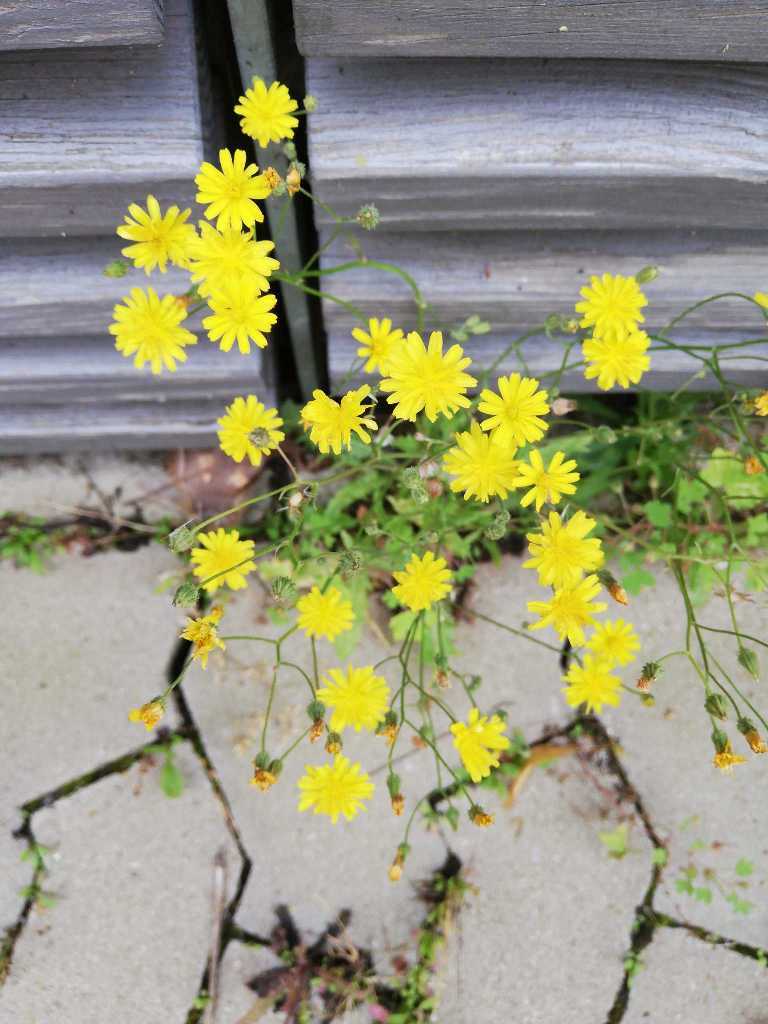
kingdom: Plantae
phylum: Tracheophyta
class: Magnoliopsida
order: Asterales
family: Asteraceae
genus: Crepis
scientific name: Crepis capillaris
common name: Smooth hawksbeard
